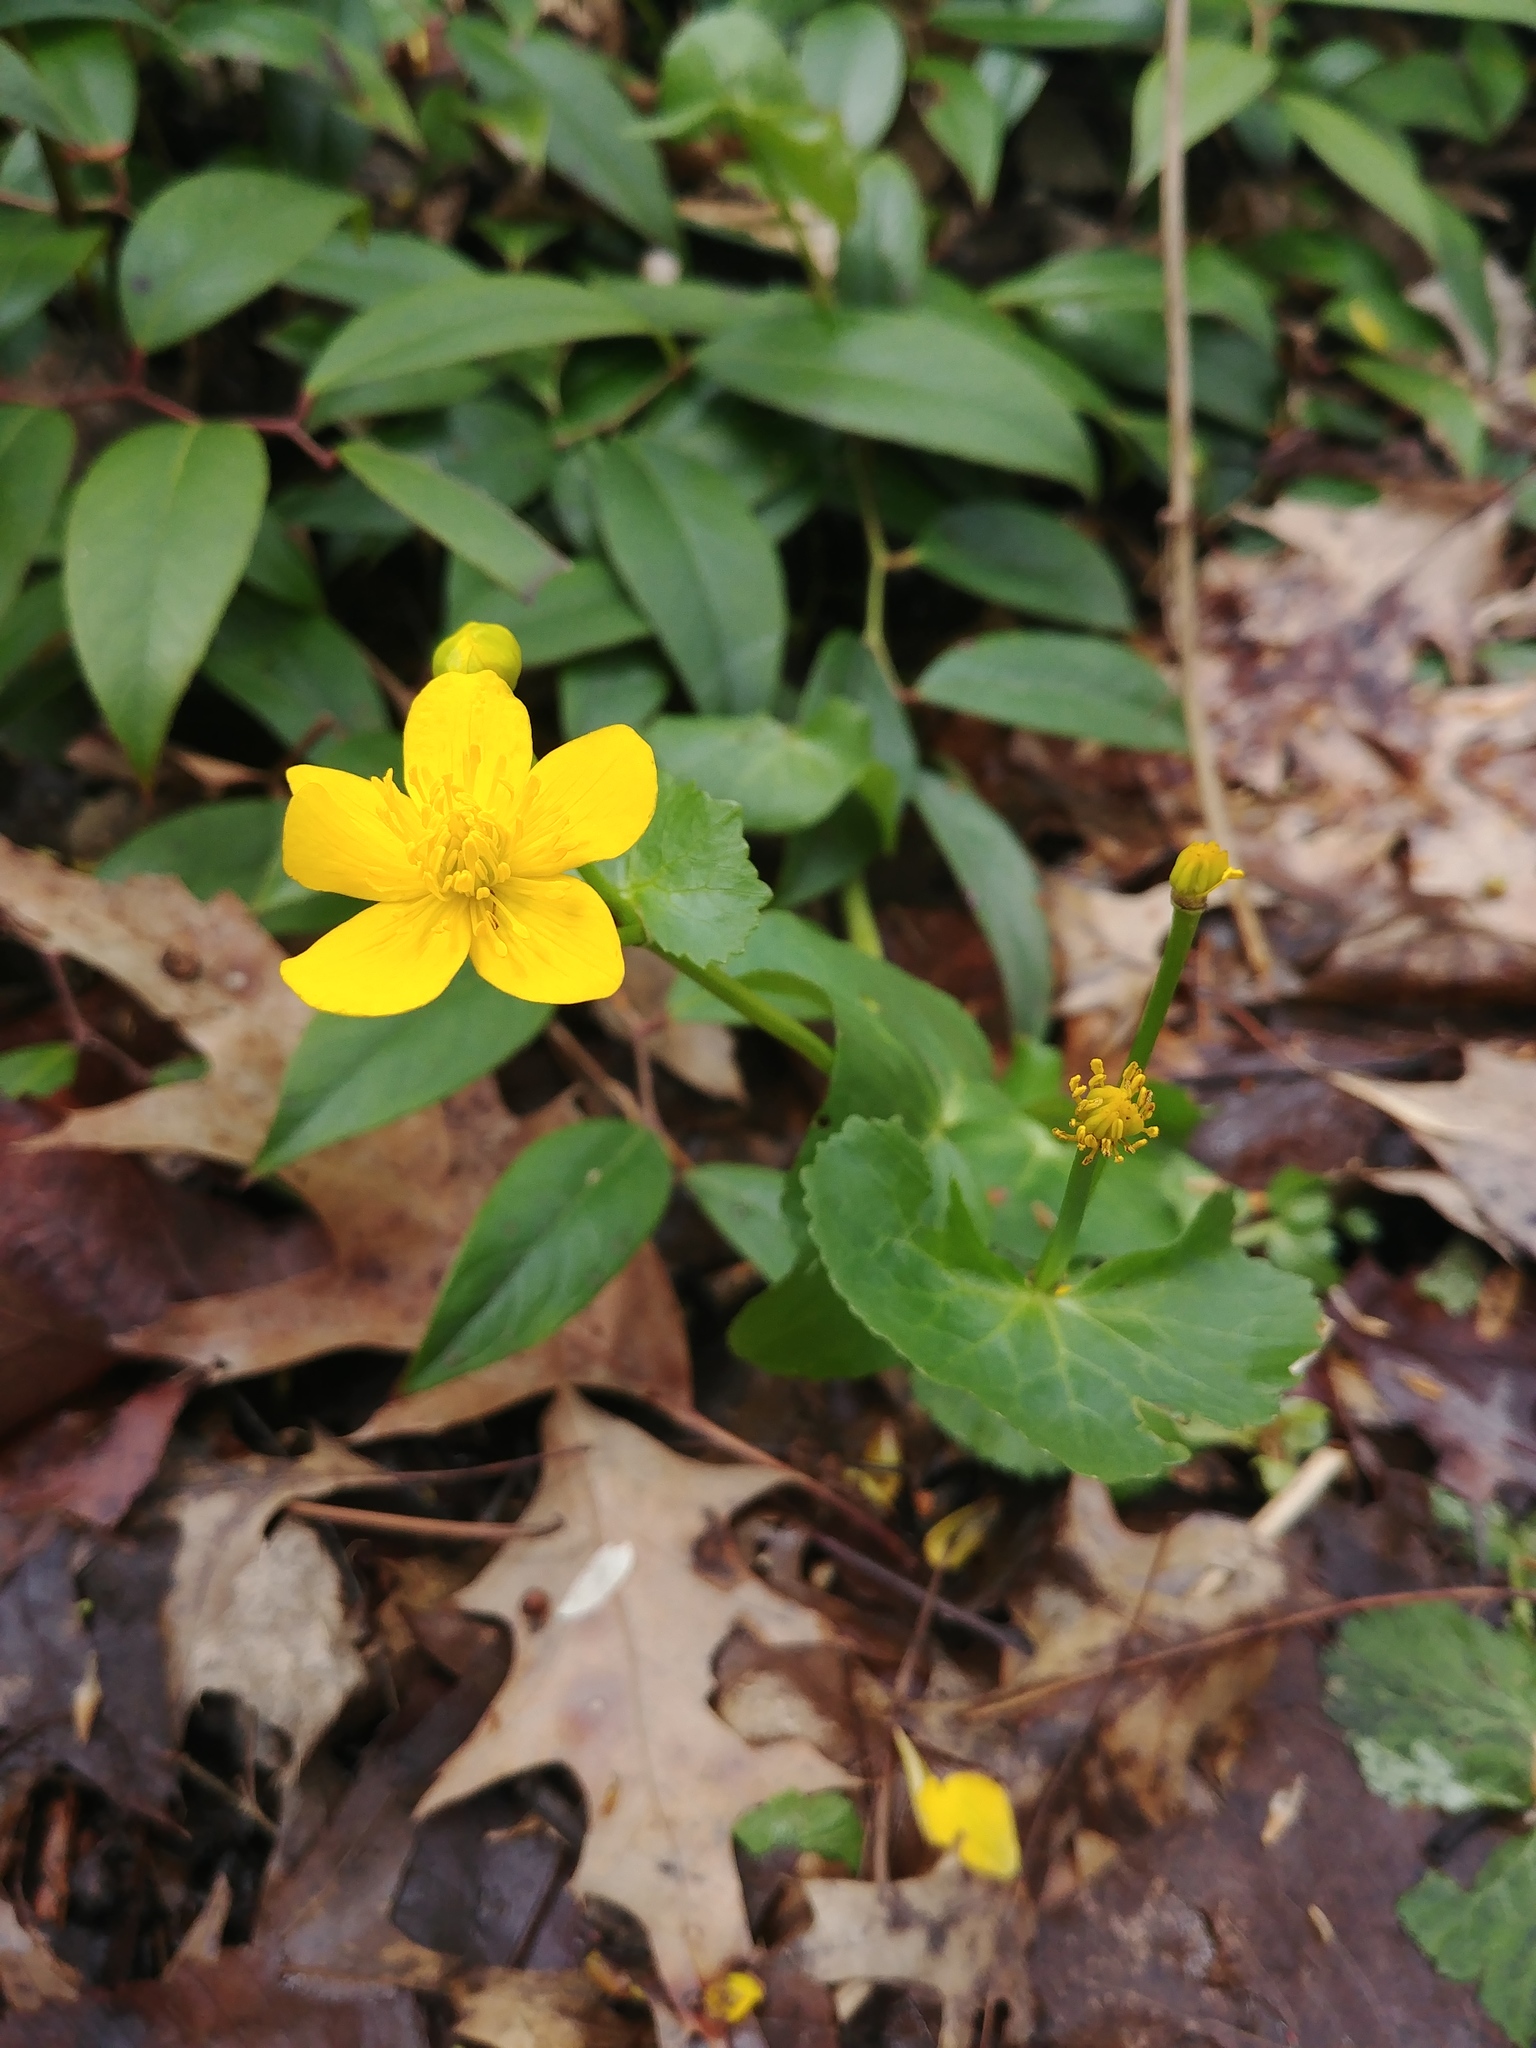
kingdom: Plantae
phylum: Tracheophyta
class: Magnoliopsida
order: Ranunculales
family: Ranunculaceae
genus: Caltha
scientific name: Caltha palustris
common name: Marsh marigold
